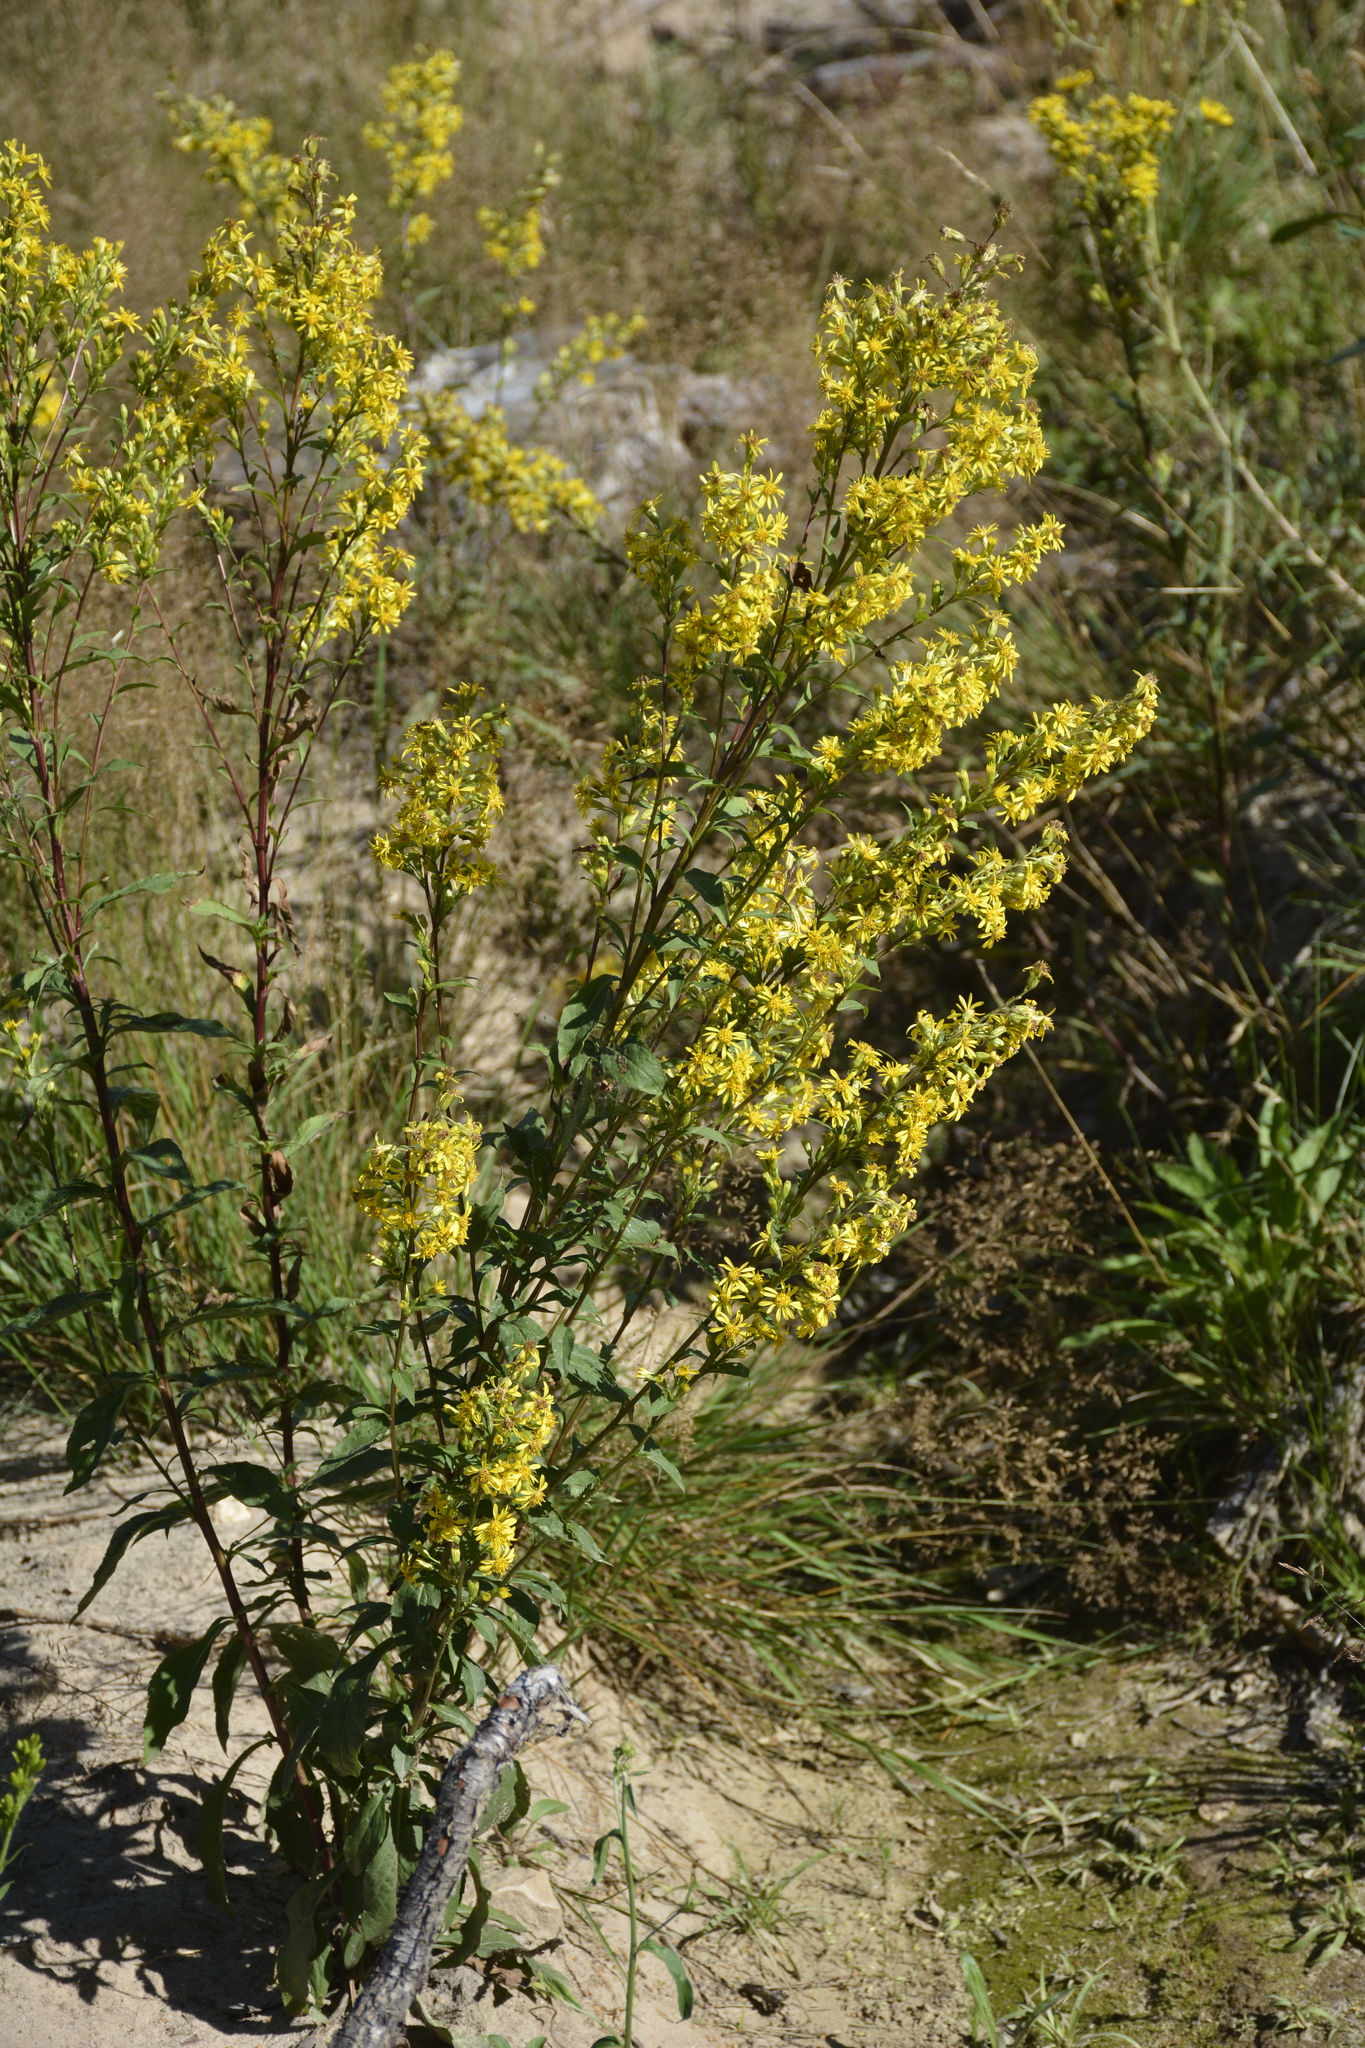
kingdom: Plantae
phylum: Tracheophyta
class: Magnoliopsida
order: Asterales
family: Asteraceae
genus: Solidago
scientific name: Solidago virgaurea
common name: Goldenrod
